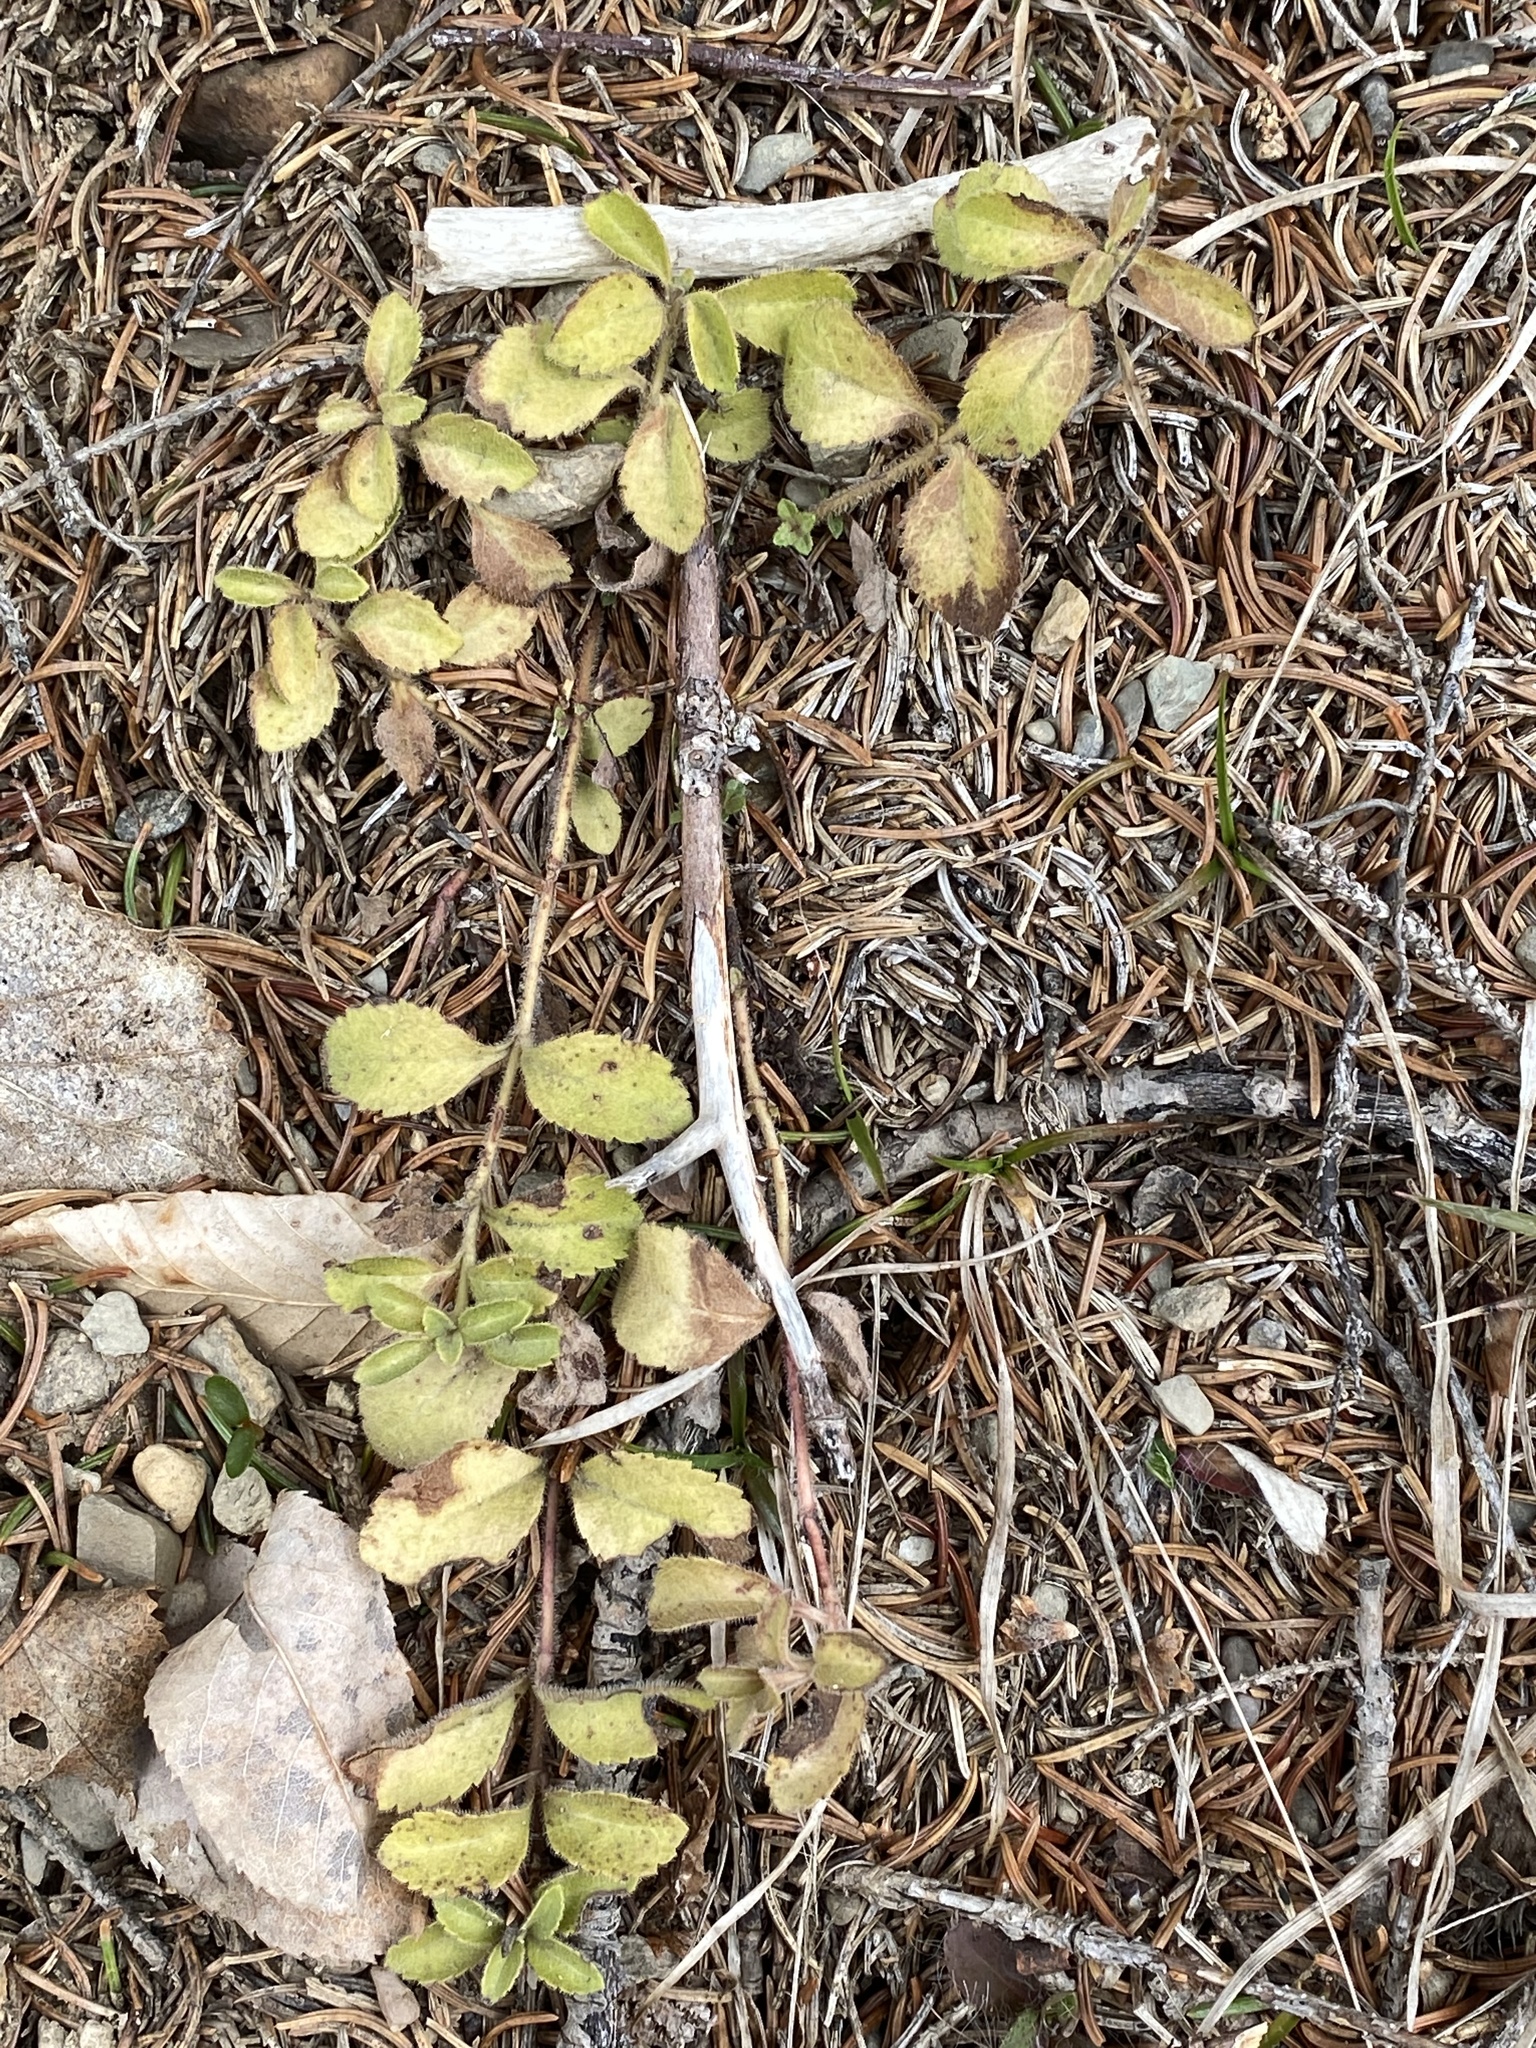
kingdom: Plantae
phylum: Tracheophyta
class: Magnoliopsida
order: Lamiales
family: Plantaginaceae
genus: Veronica
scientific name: Veronica officinalis
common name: Common speedwell
